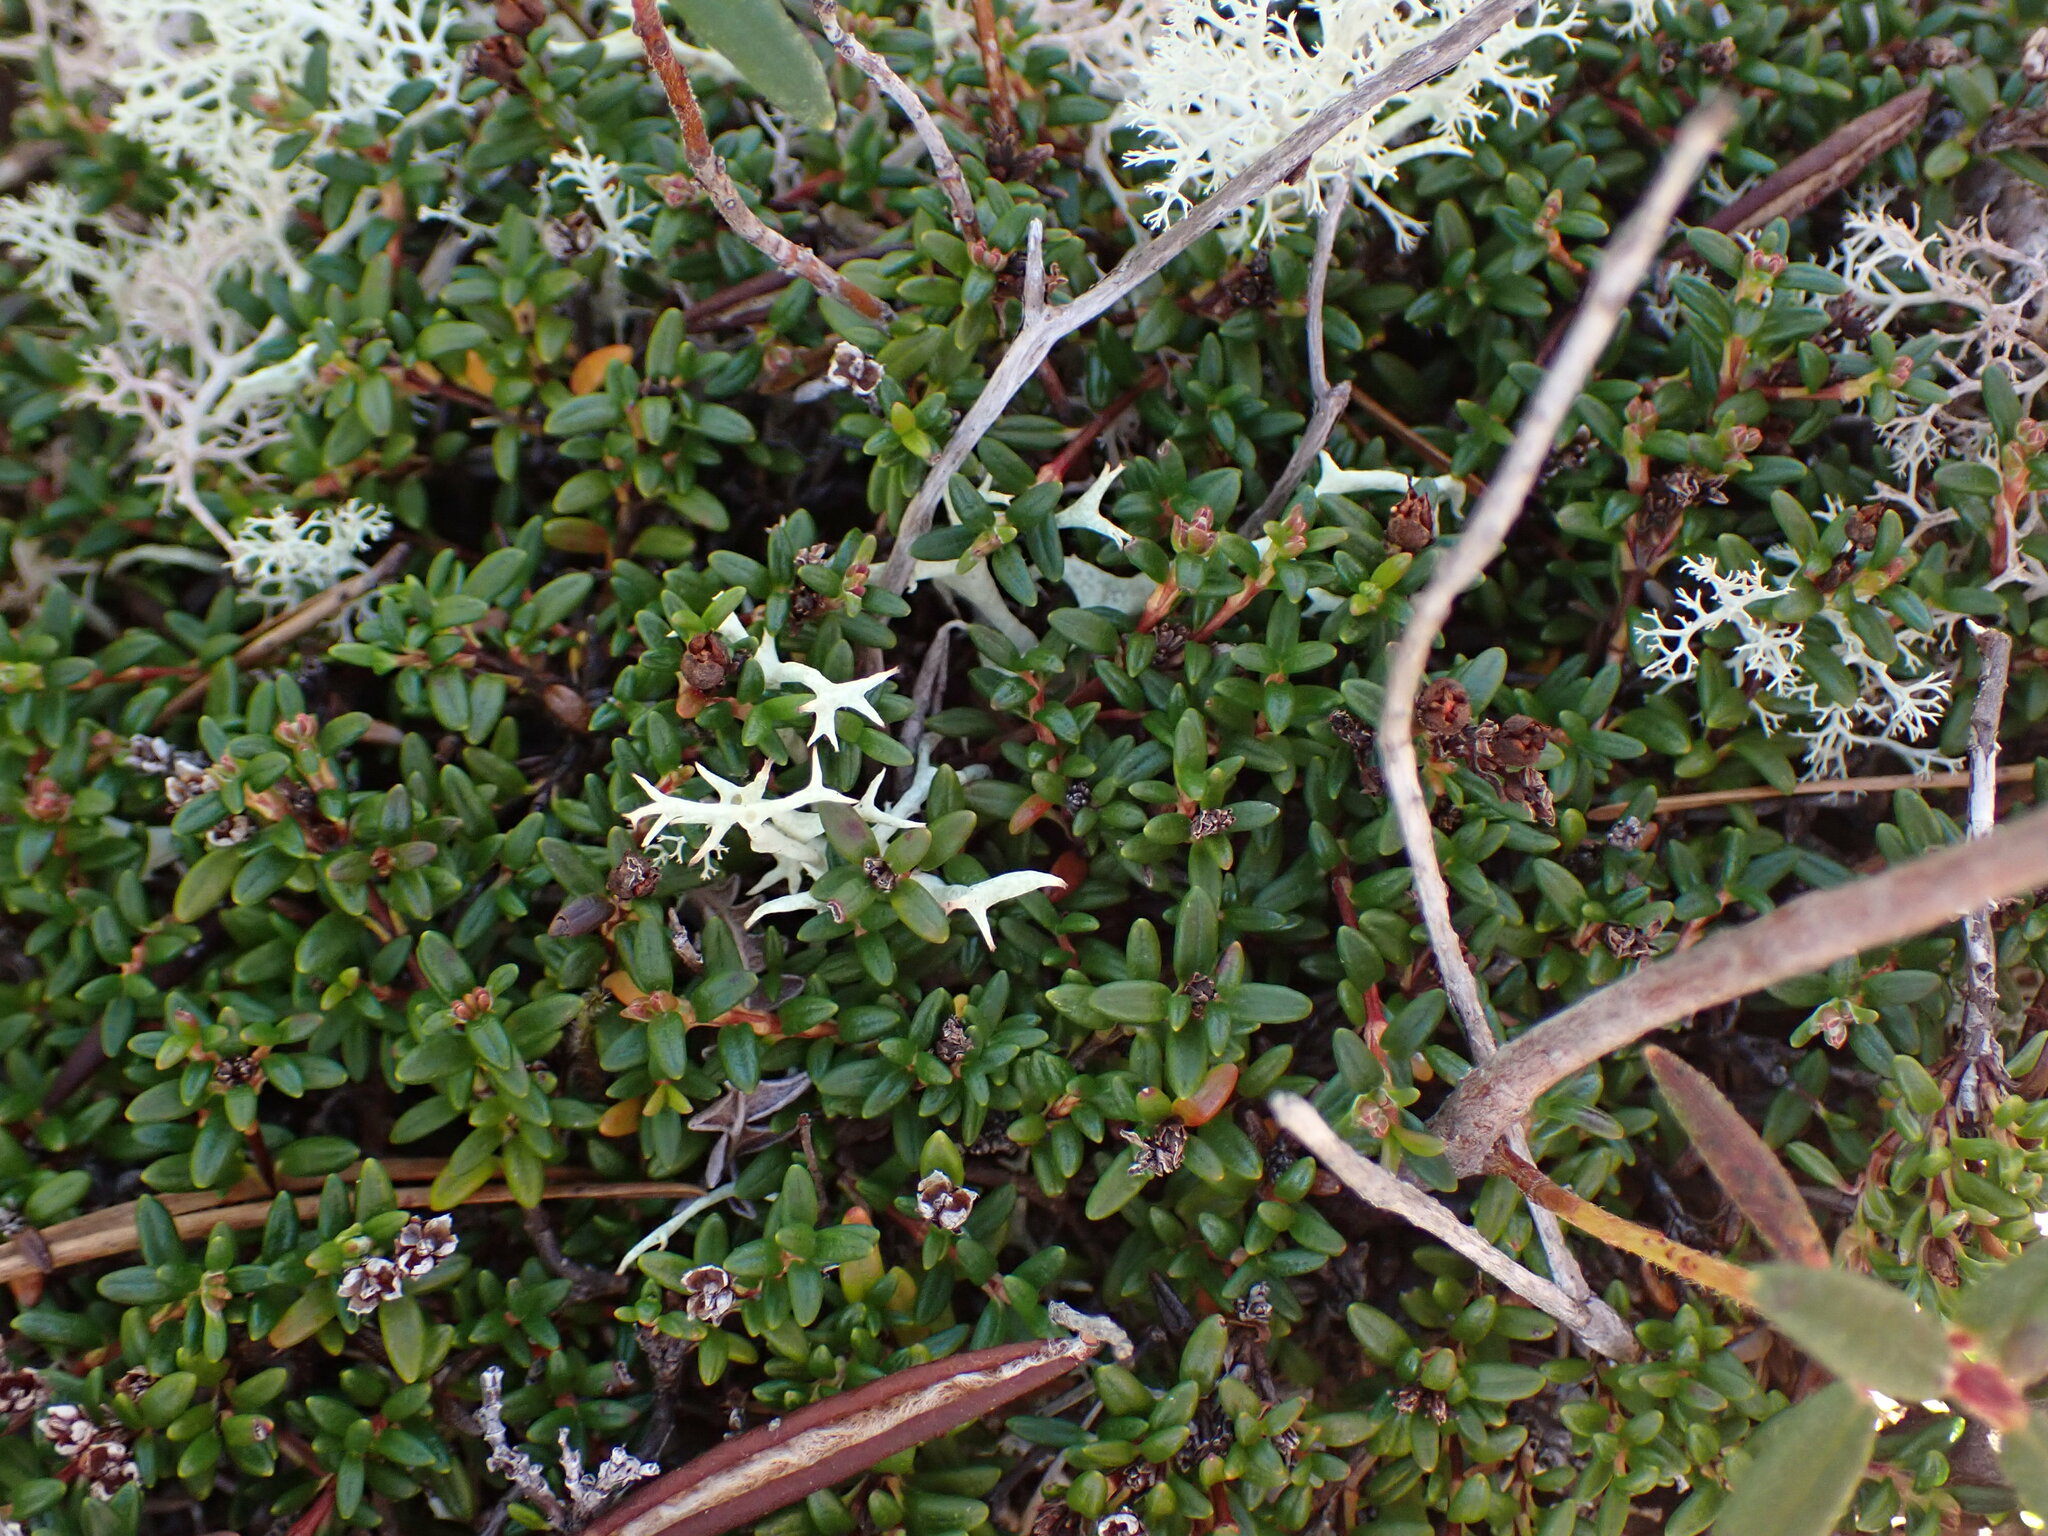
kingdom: Plantae
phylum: Tracheophyta
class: Magnoliopsida
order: Ericales
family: Ericaceae
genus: Kalmia
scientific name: Kalmia procumbens
